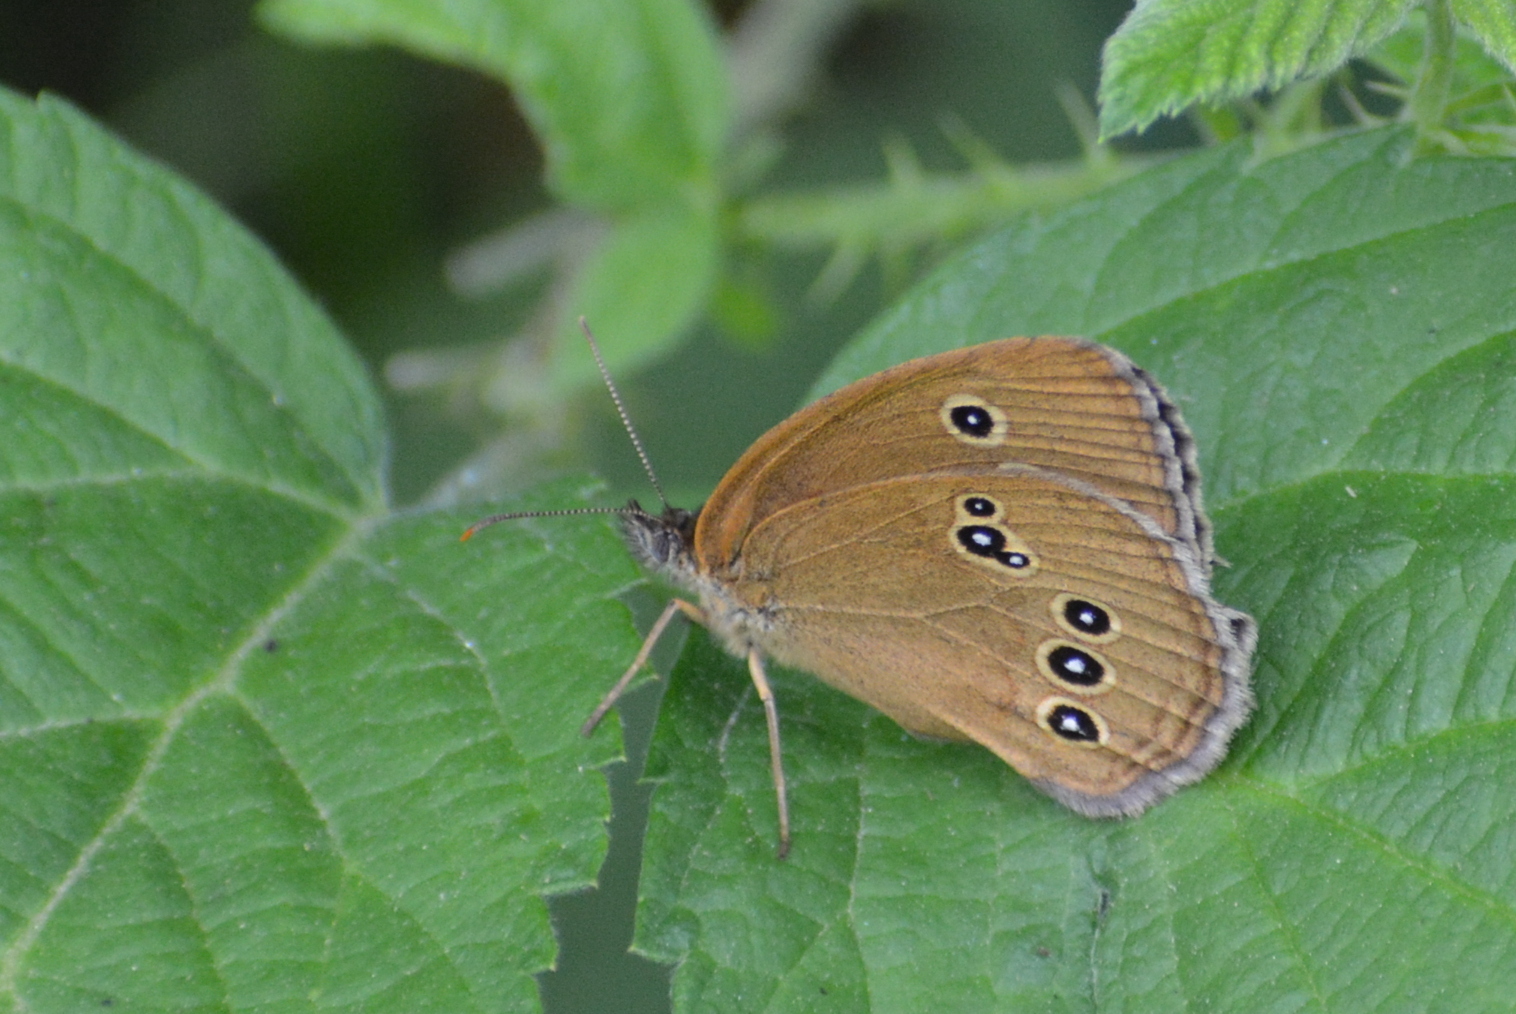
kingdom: Animalia
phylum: Arthropoda
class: Insecta
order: Lepidoptera
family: Nymphalidae
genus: Aphantopus
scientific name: Aphantopus hyperantus
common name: Ringlet
